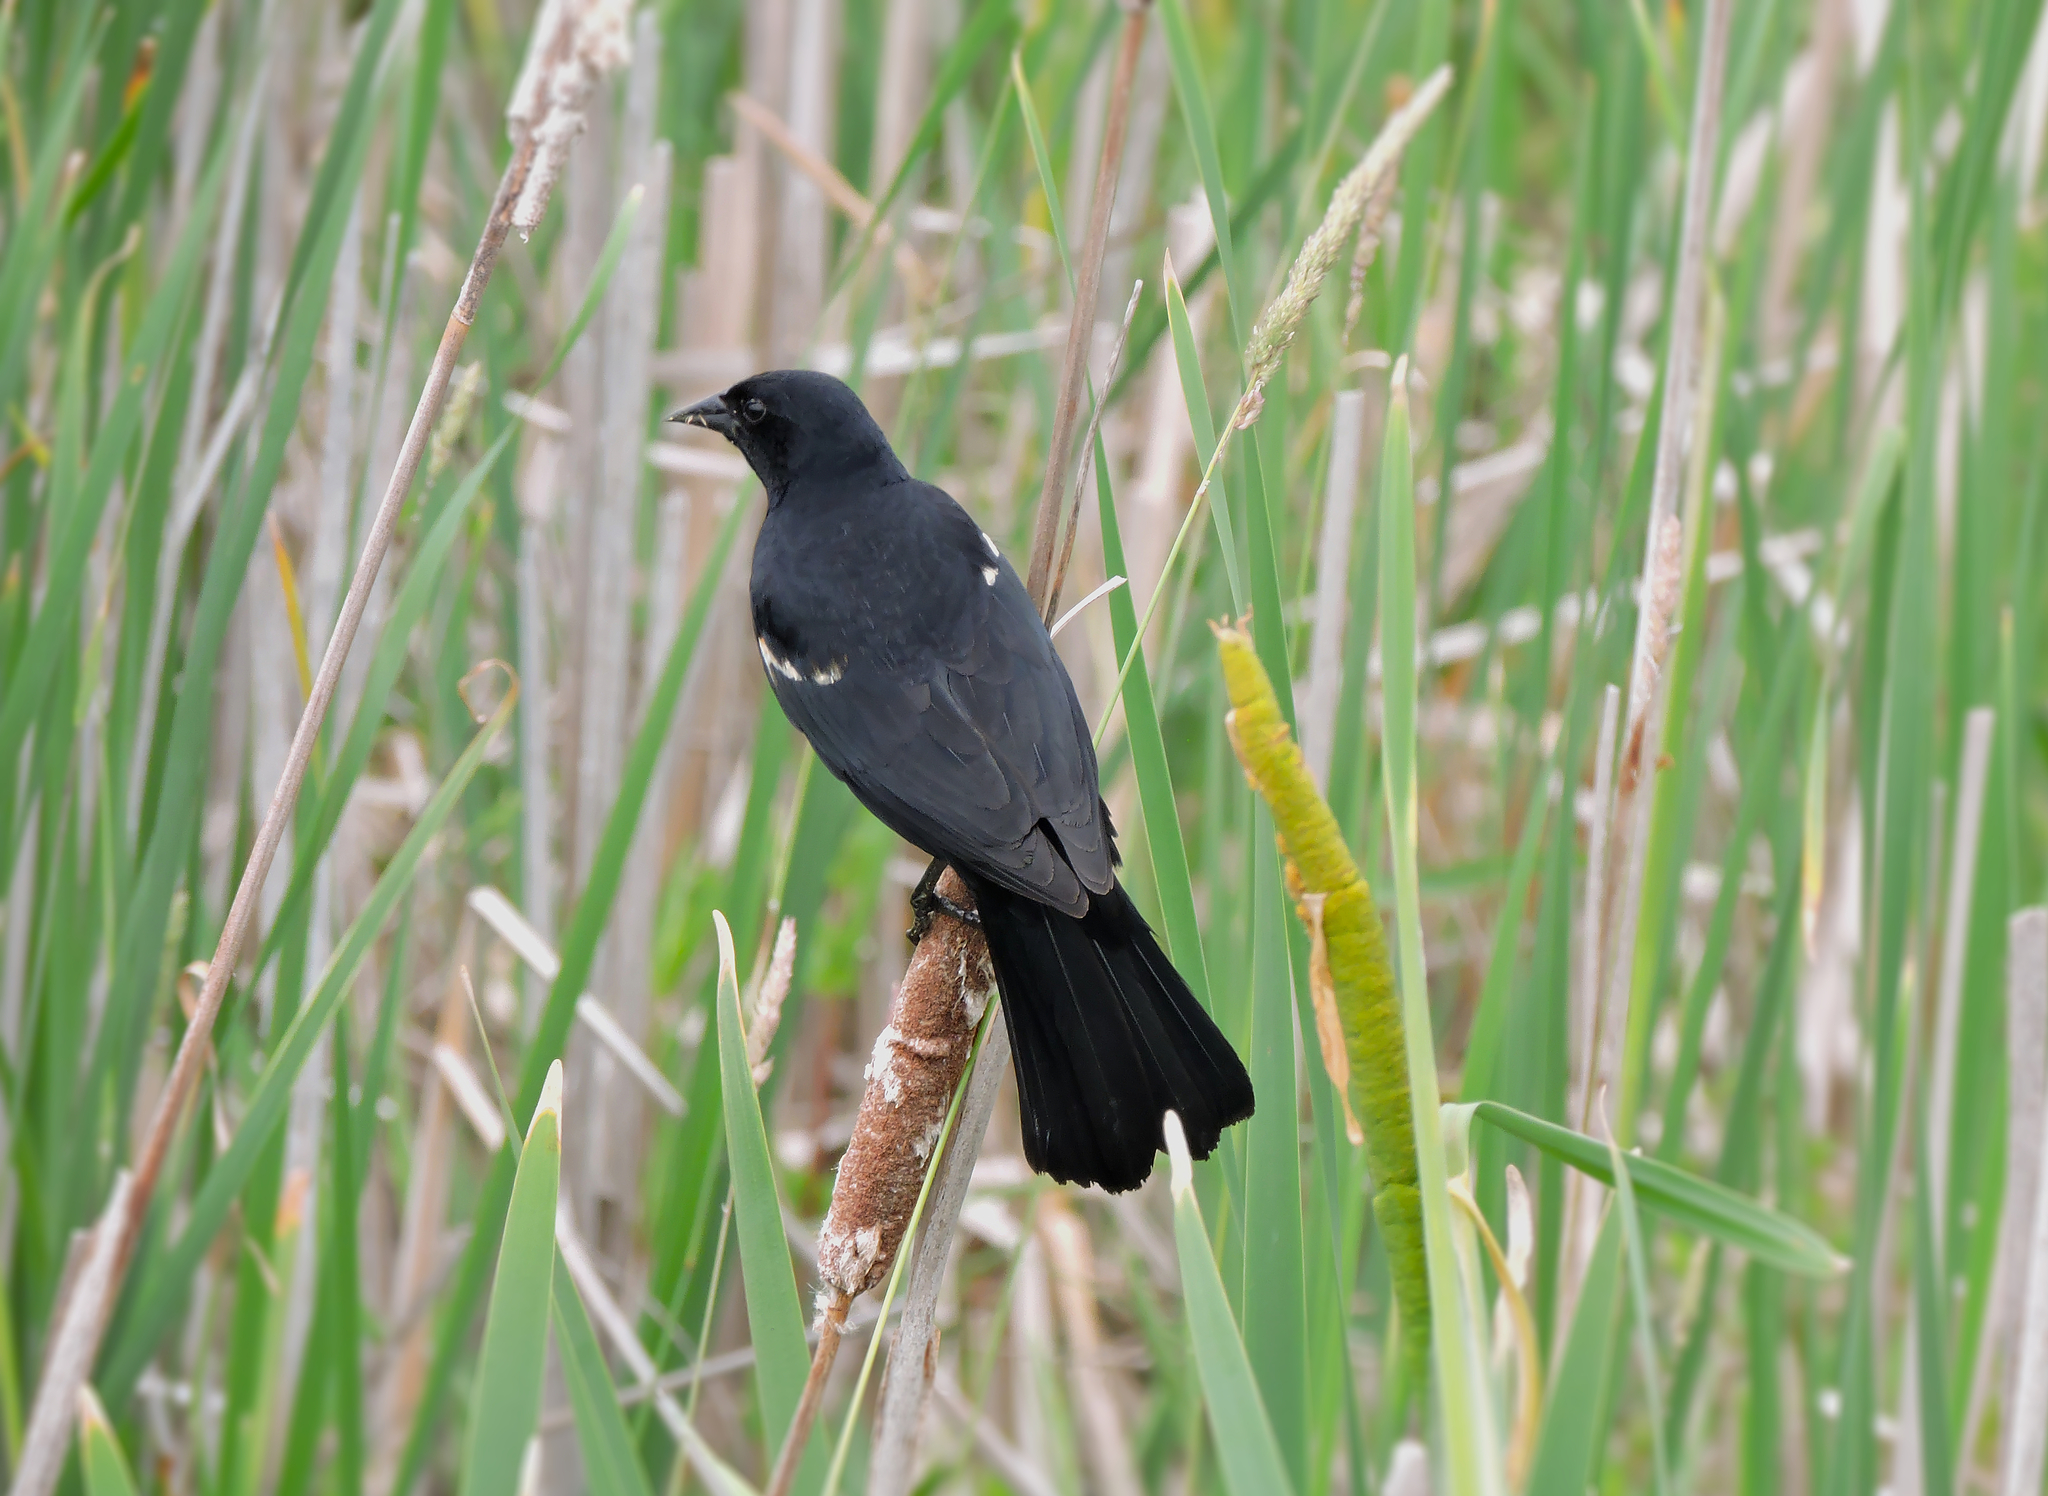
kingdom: Animalia
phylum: Chordata
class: Aves
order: Passeriformes
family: Icteridae
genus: Agelaius
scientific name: Agelaius phoeniceus
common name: Red-winged blackbird
